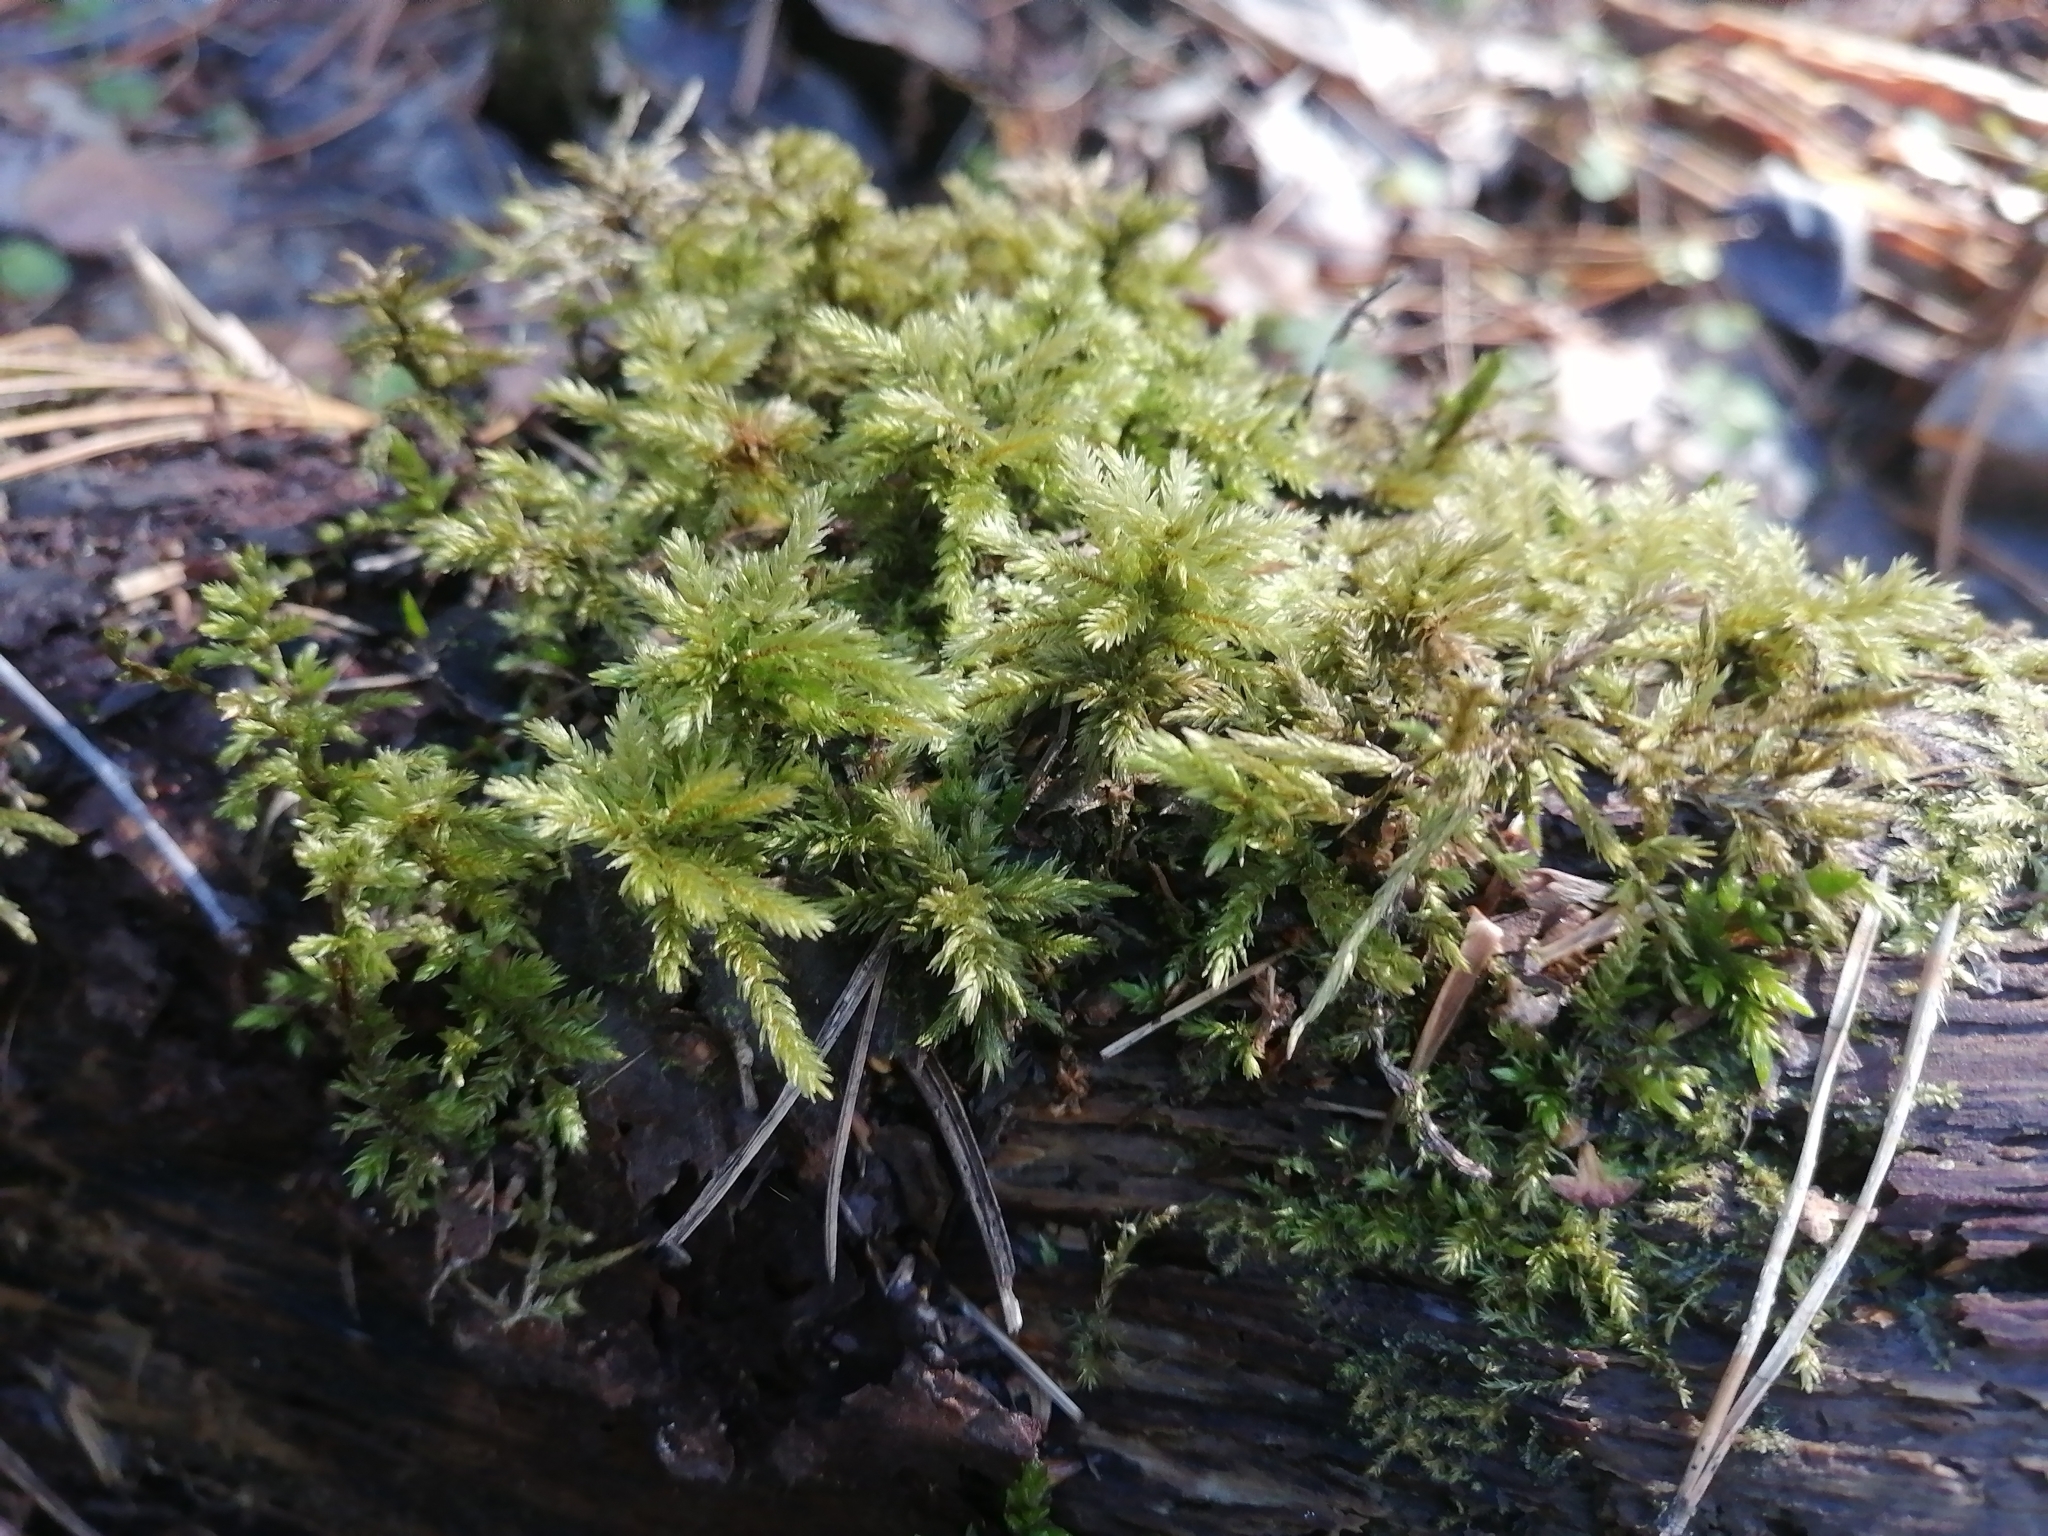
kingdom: Plantae
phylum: Bryophyta
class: Bryopsida
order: Hypnales
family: Climaciaceae
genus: Climacium
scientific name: Climacium dendroides
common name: Northern tree moss
